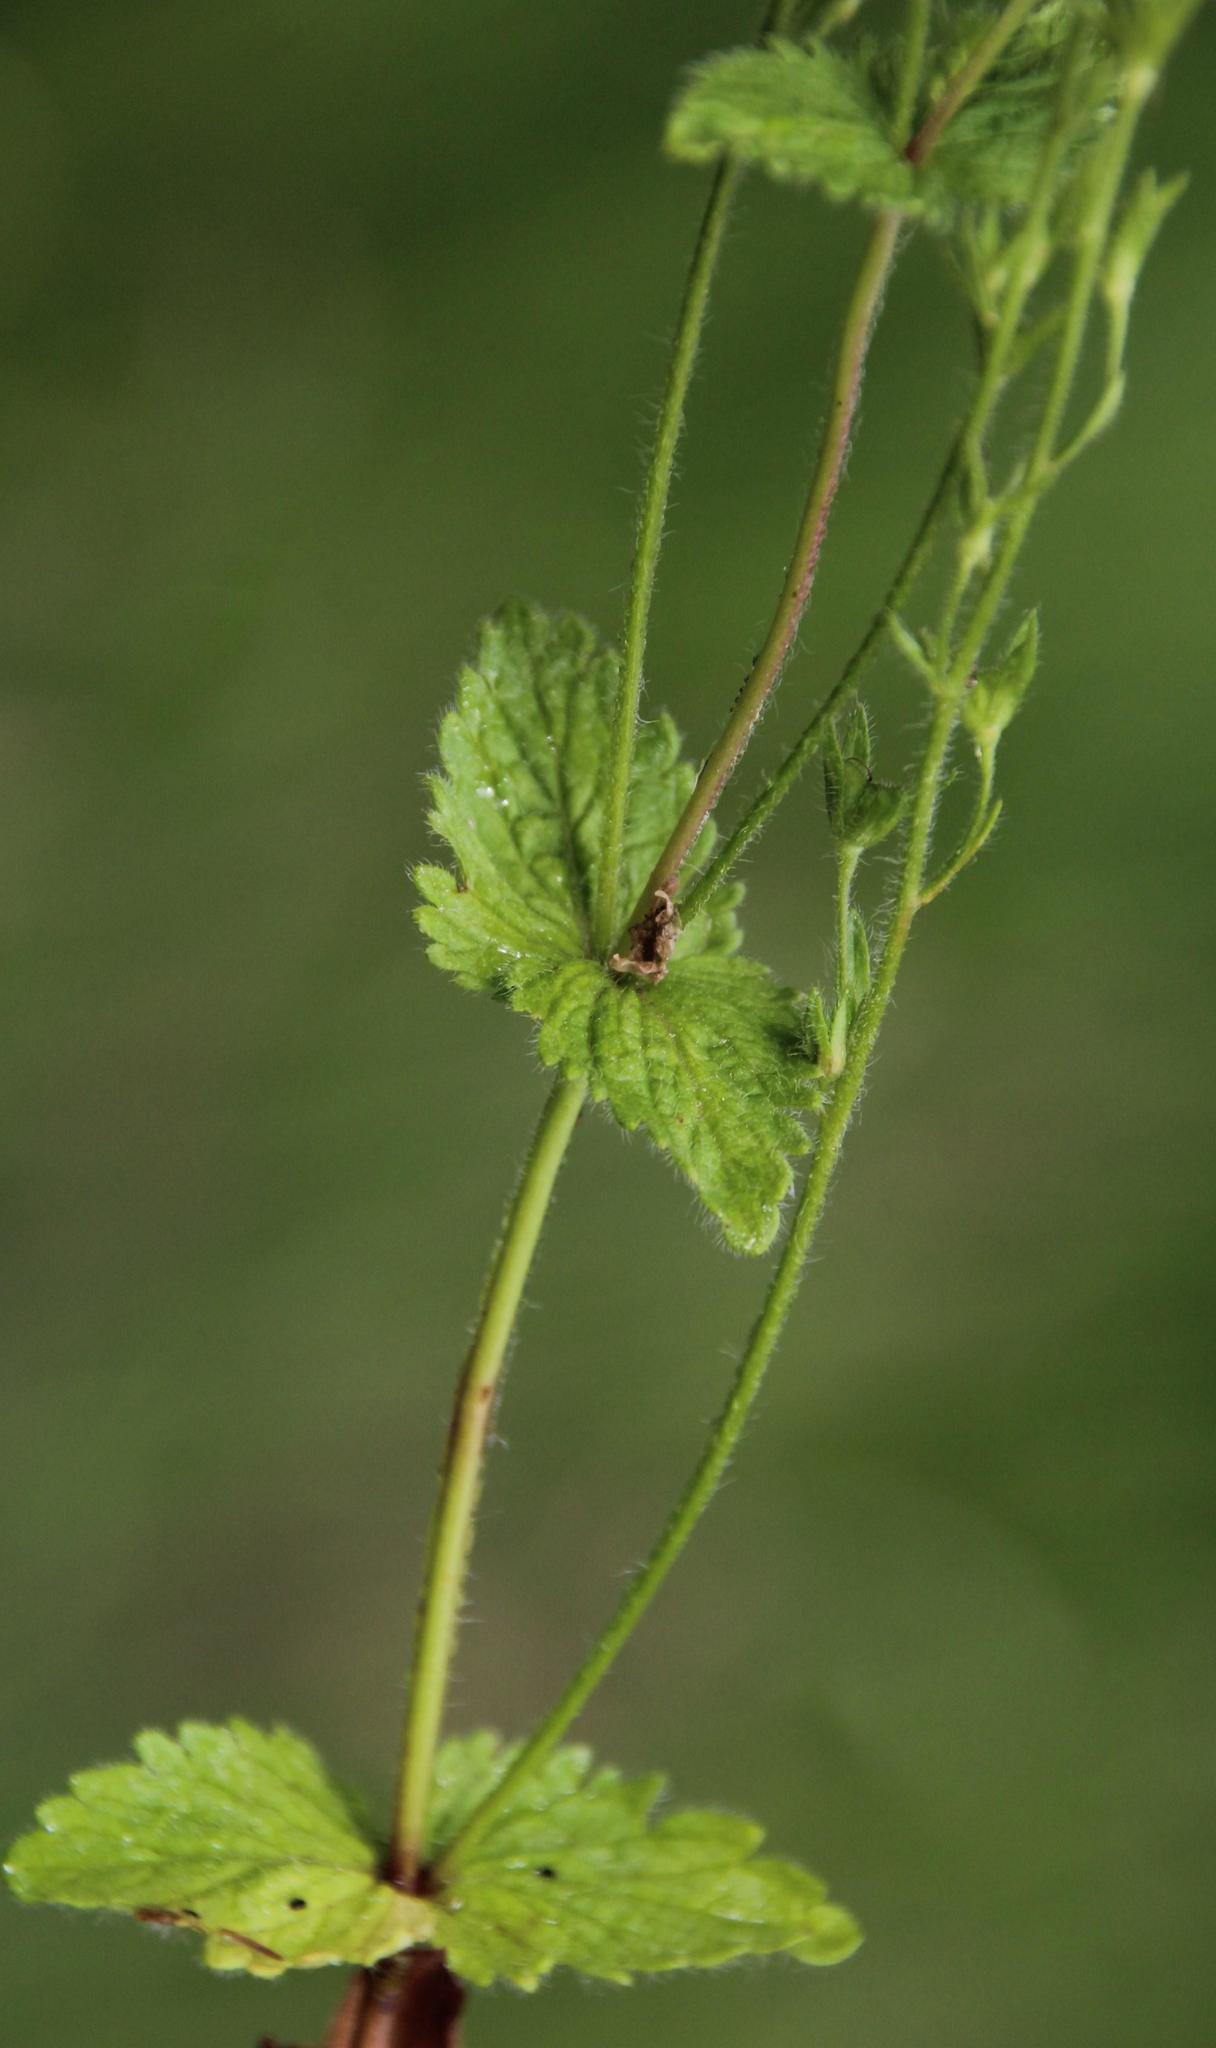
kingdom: Plantae
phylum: Tracheophyta
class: Magnoliopsida
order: Lamiales
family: Plantaginaceae
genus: Veronica
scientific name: Veronica chamaedrys
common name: Germander speedwell
